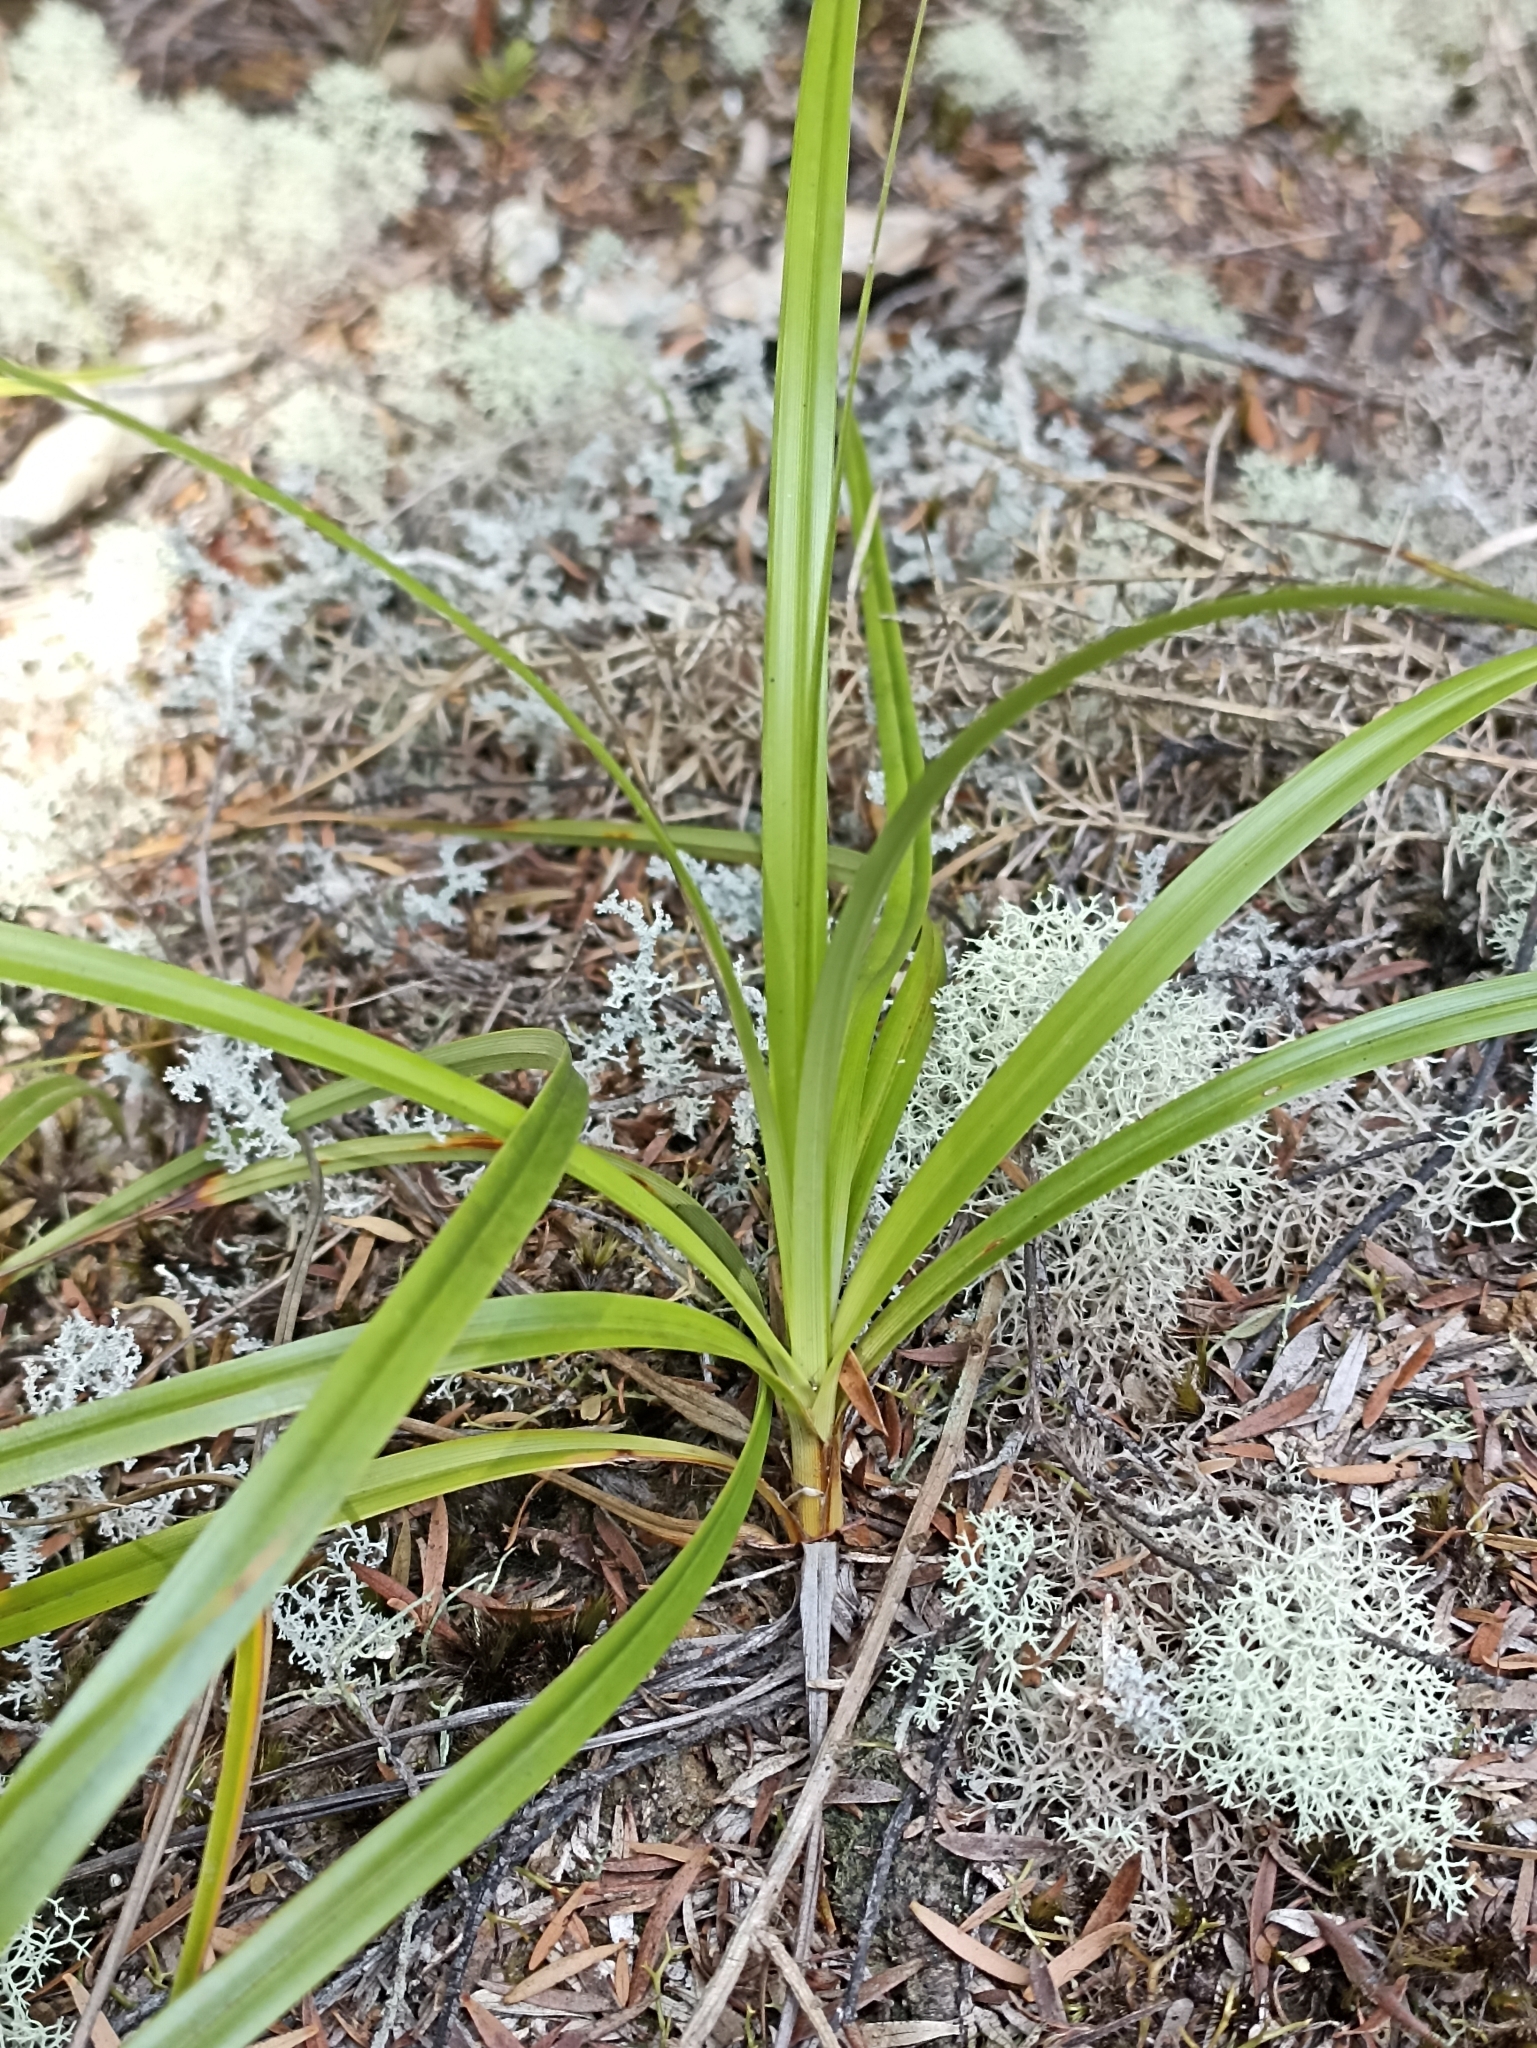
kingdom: Plantae
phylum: Tracheophyta
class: Liliopsida
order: Poales
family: Cyperaceae
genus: Morelotia
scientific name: Morelotia affinis
